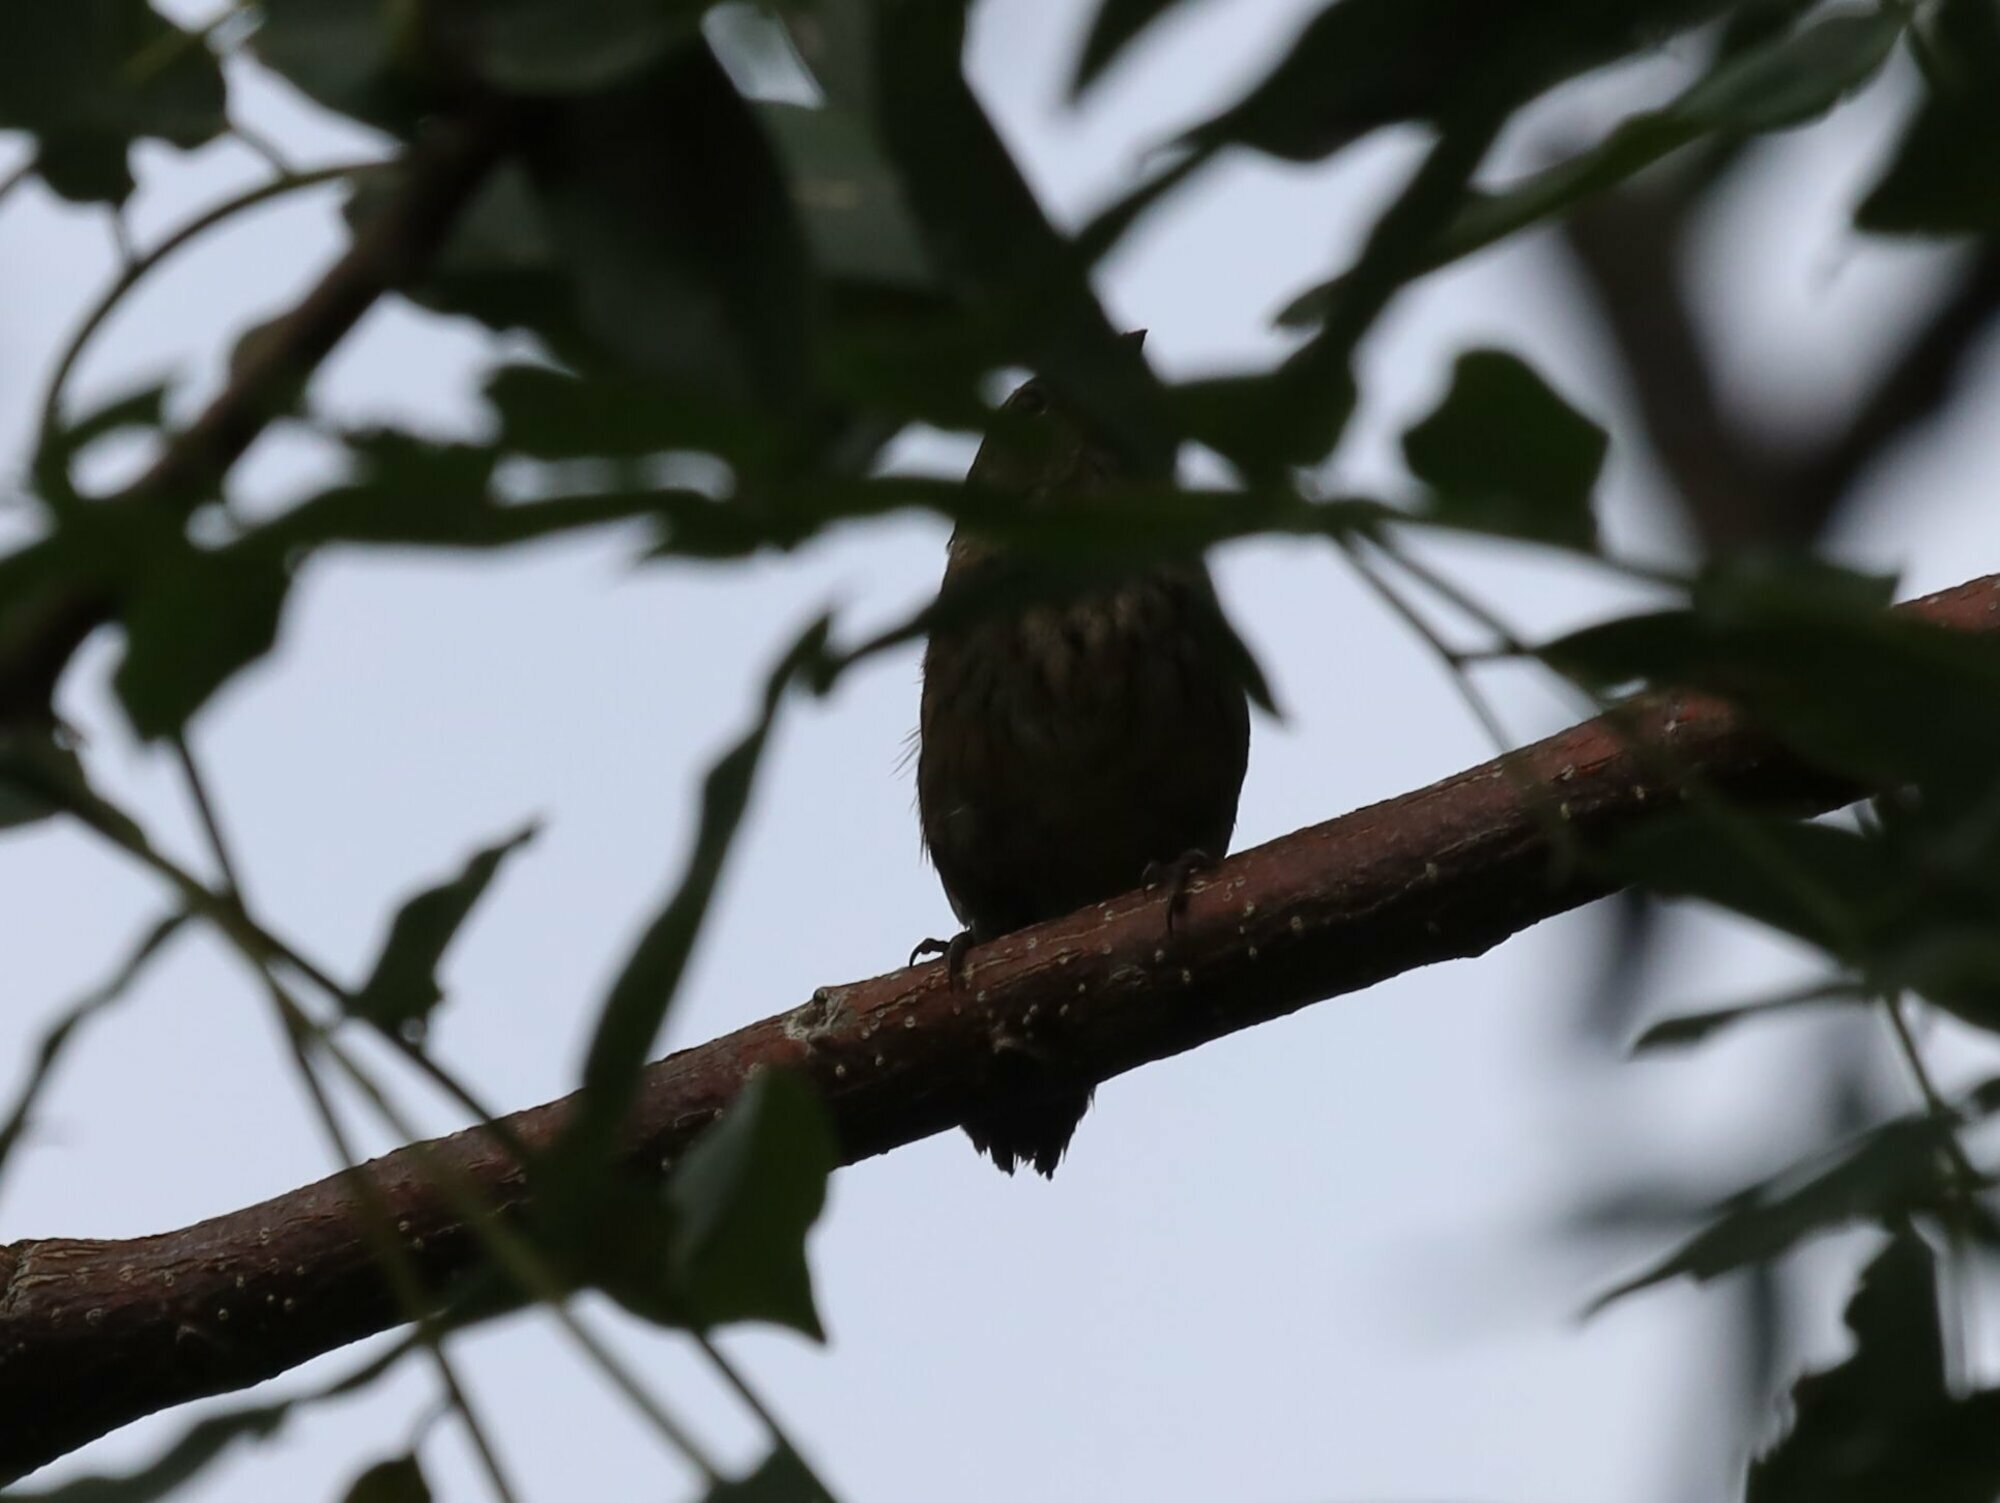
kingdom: Animalia
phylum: Chordata
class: Aves
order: Passeriformes
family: Thraupidae
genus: Volatinia
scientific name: Volatinia jacarina
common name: Blue-black grassquit
